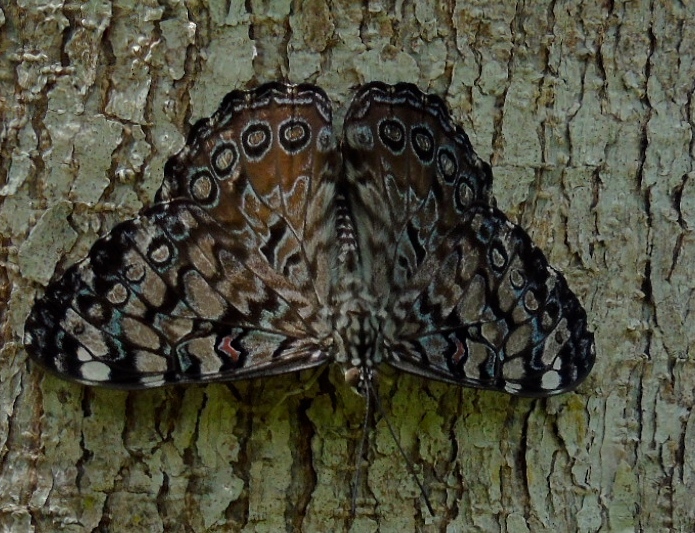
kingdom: Animalia
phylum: Arthropoda
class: Insecta
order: Lepidoptera
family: Nymphalidae
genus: Hamadryas
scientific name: Hamadryas guatemalena
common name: Guatemalan cracker
